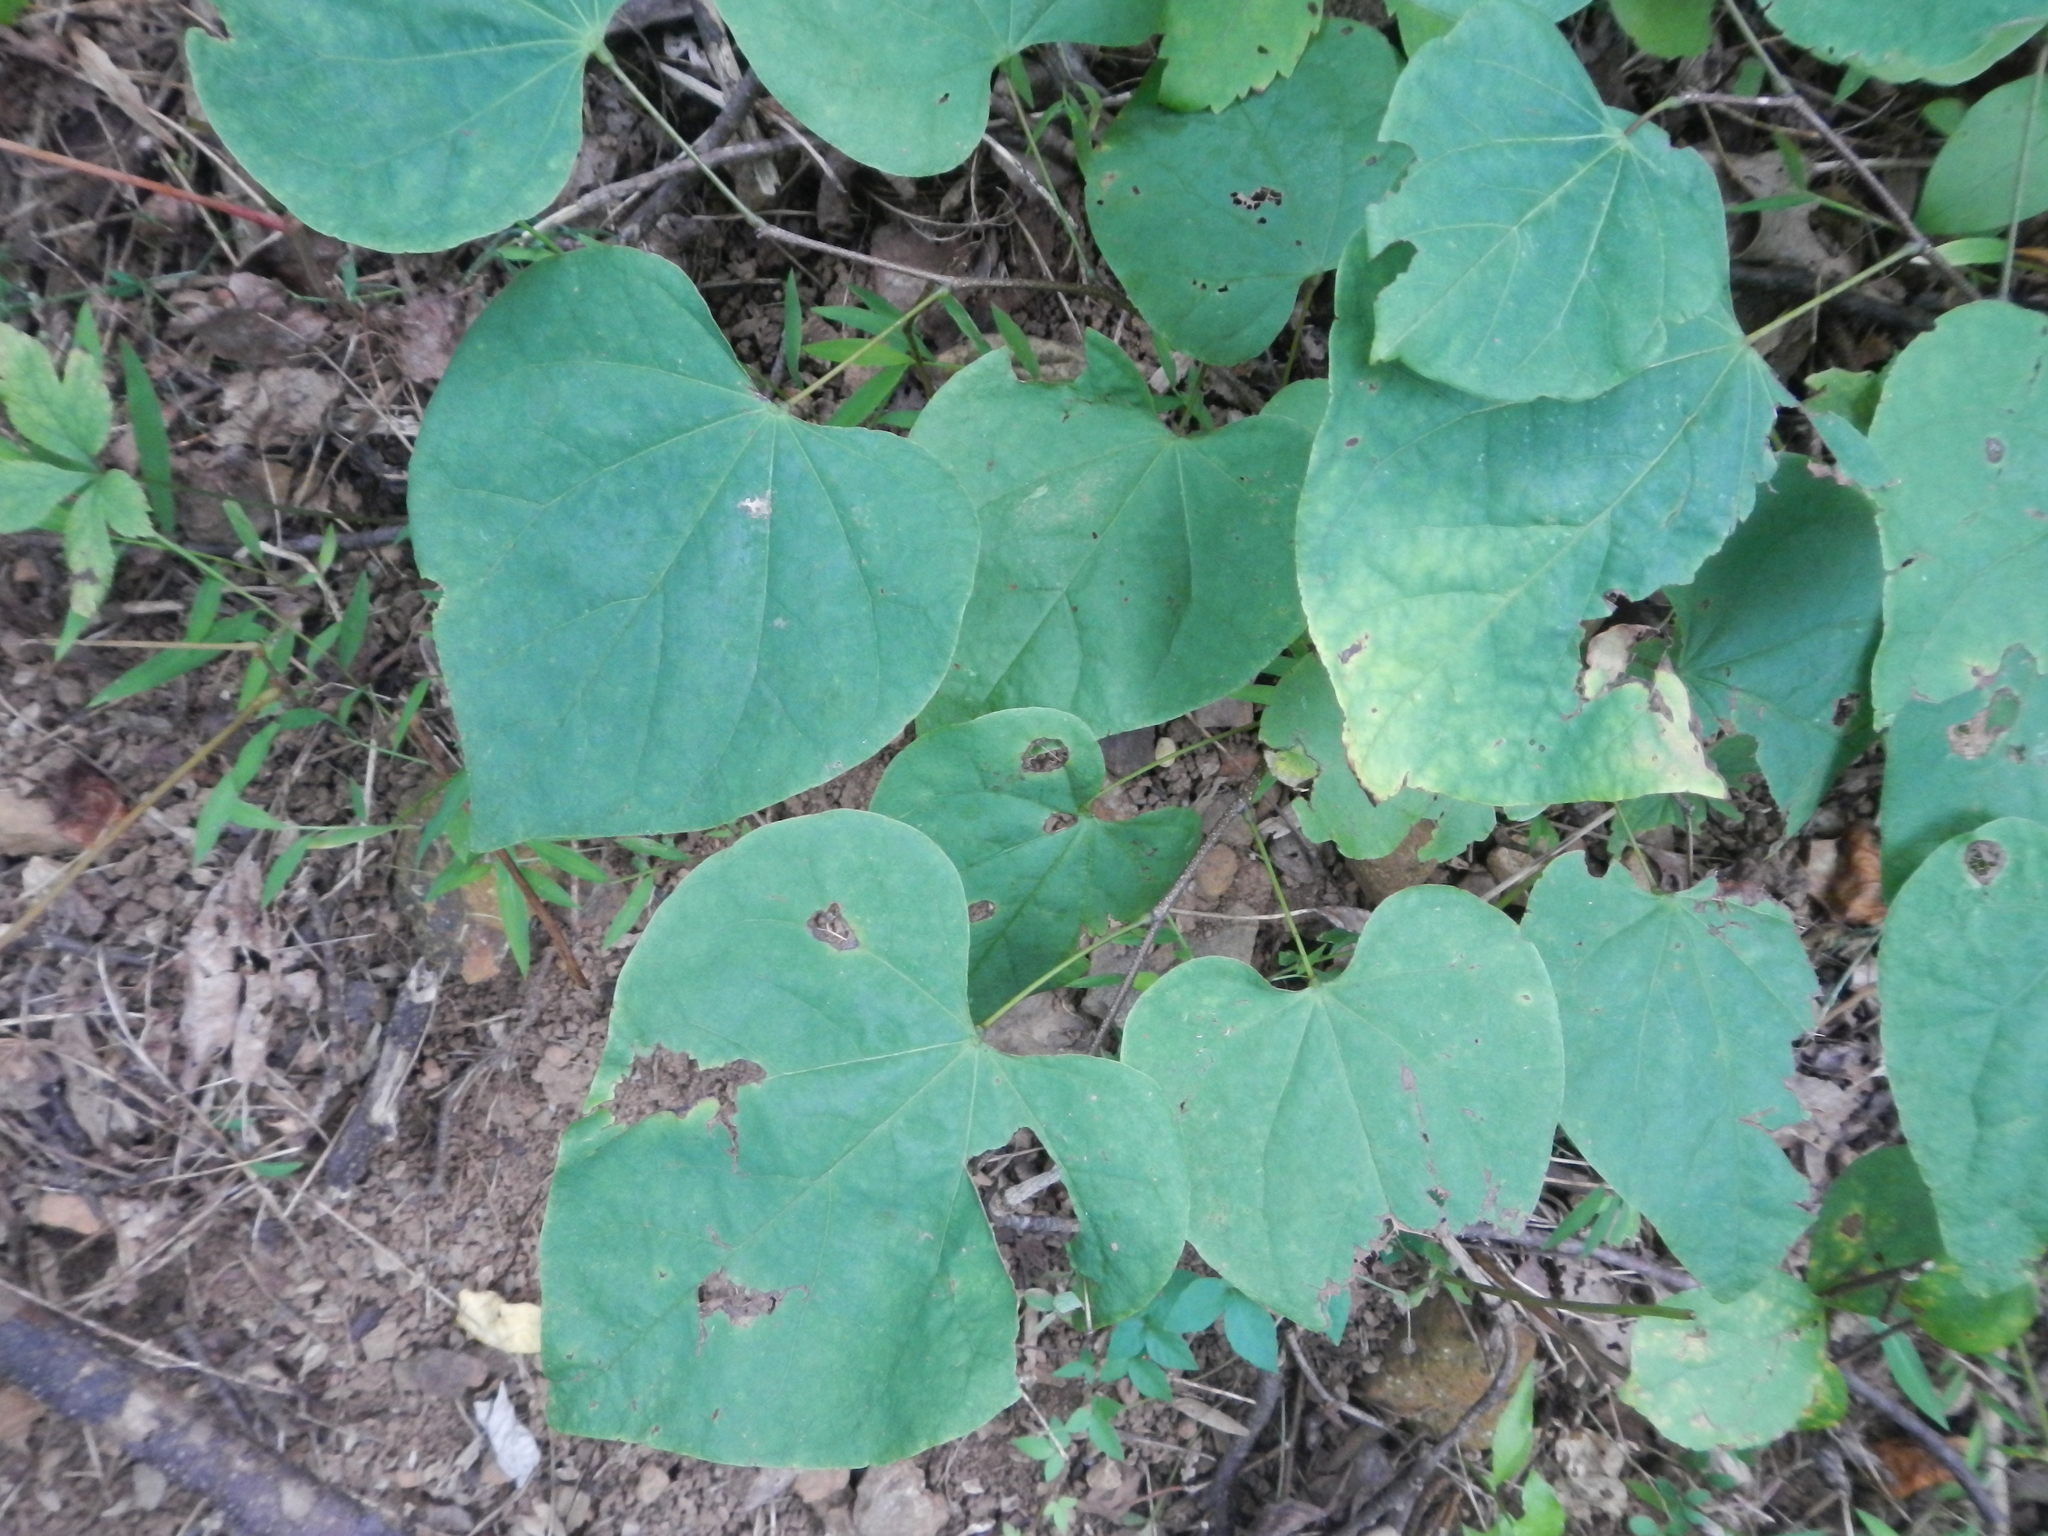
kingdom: Plantae
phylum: Tracheophyta
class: Magnoliopsida
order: Fabales
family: Fabaceae
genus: Cercis
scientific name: Cercis canadensis
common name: Eastern redbud
